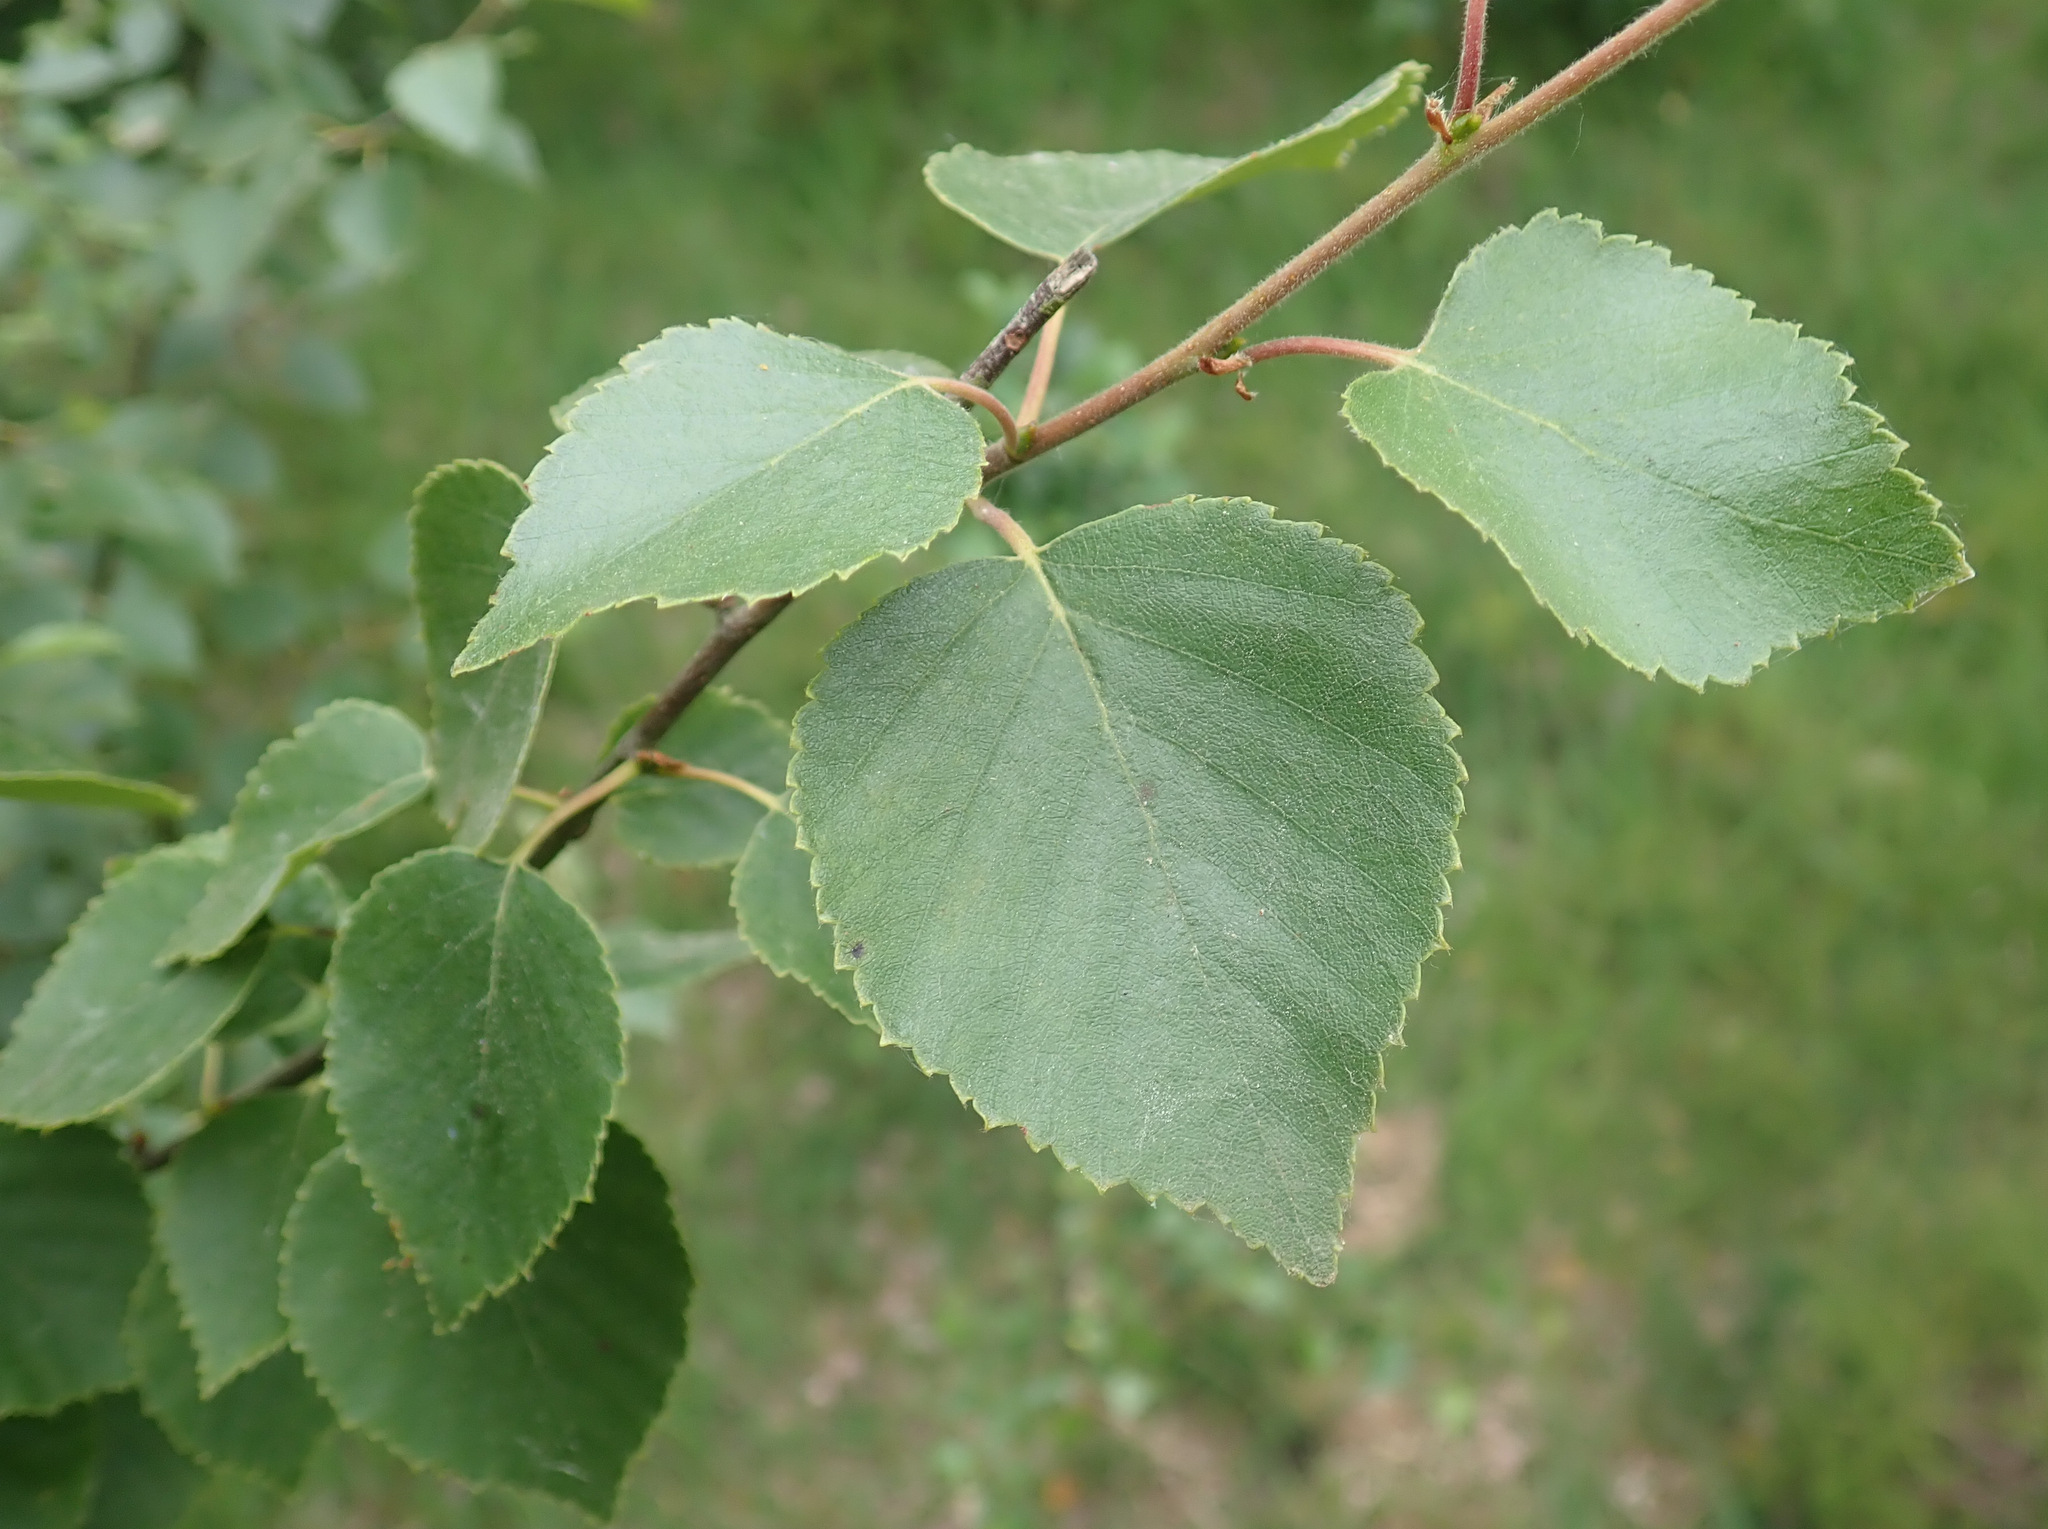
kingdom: Plantae
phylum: Tracheophyta
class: Magnoliopsida
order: Fagales
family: Betulaceae
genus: Betula
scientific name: Betula pubescens
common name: Downy birch
